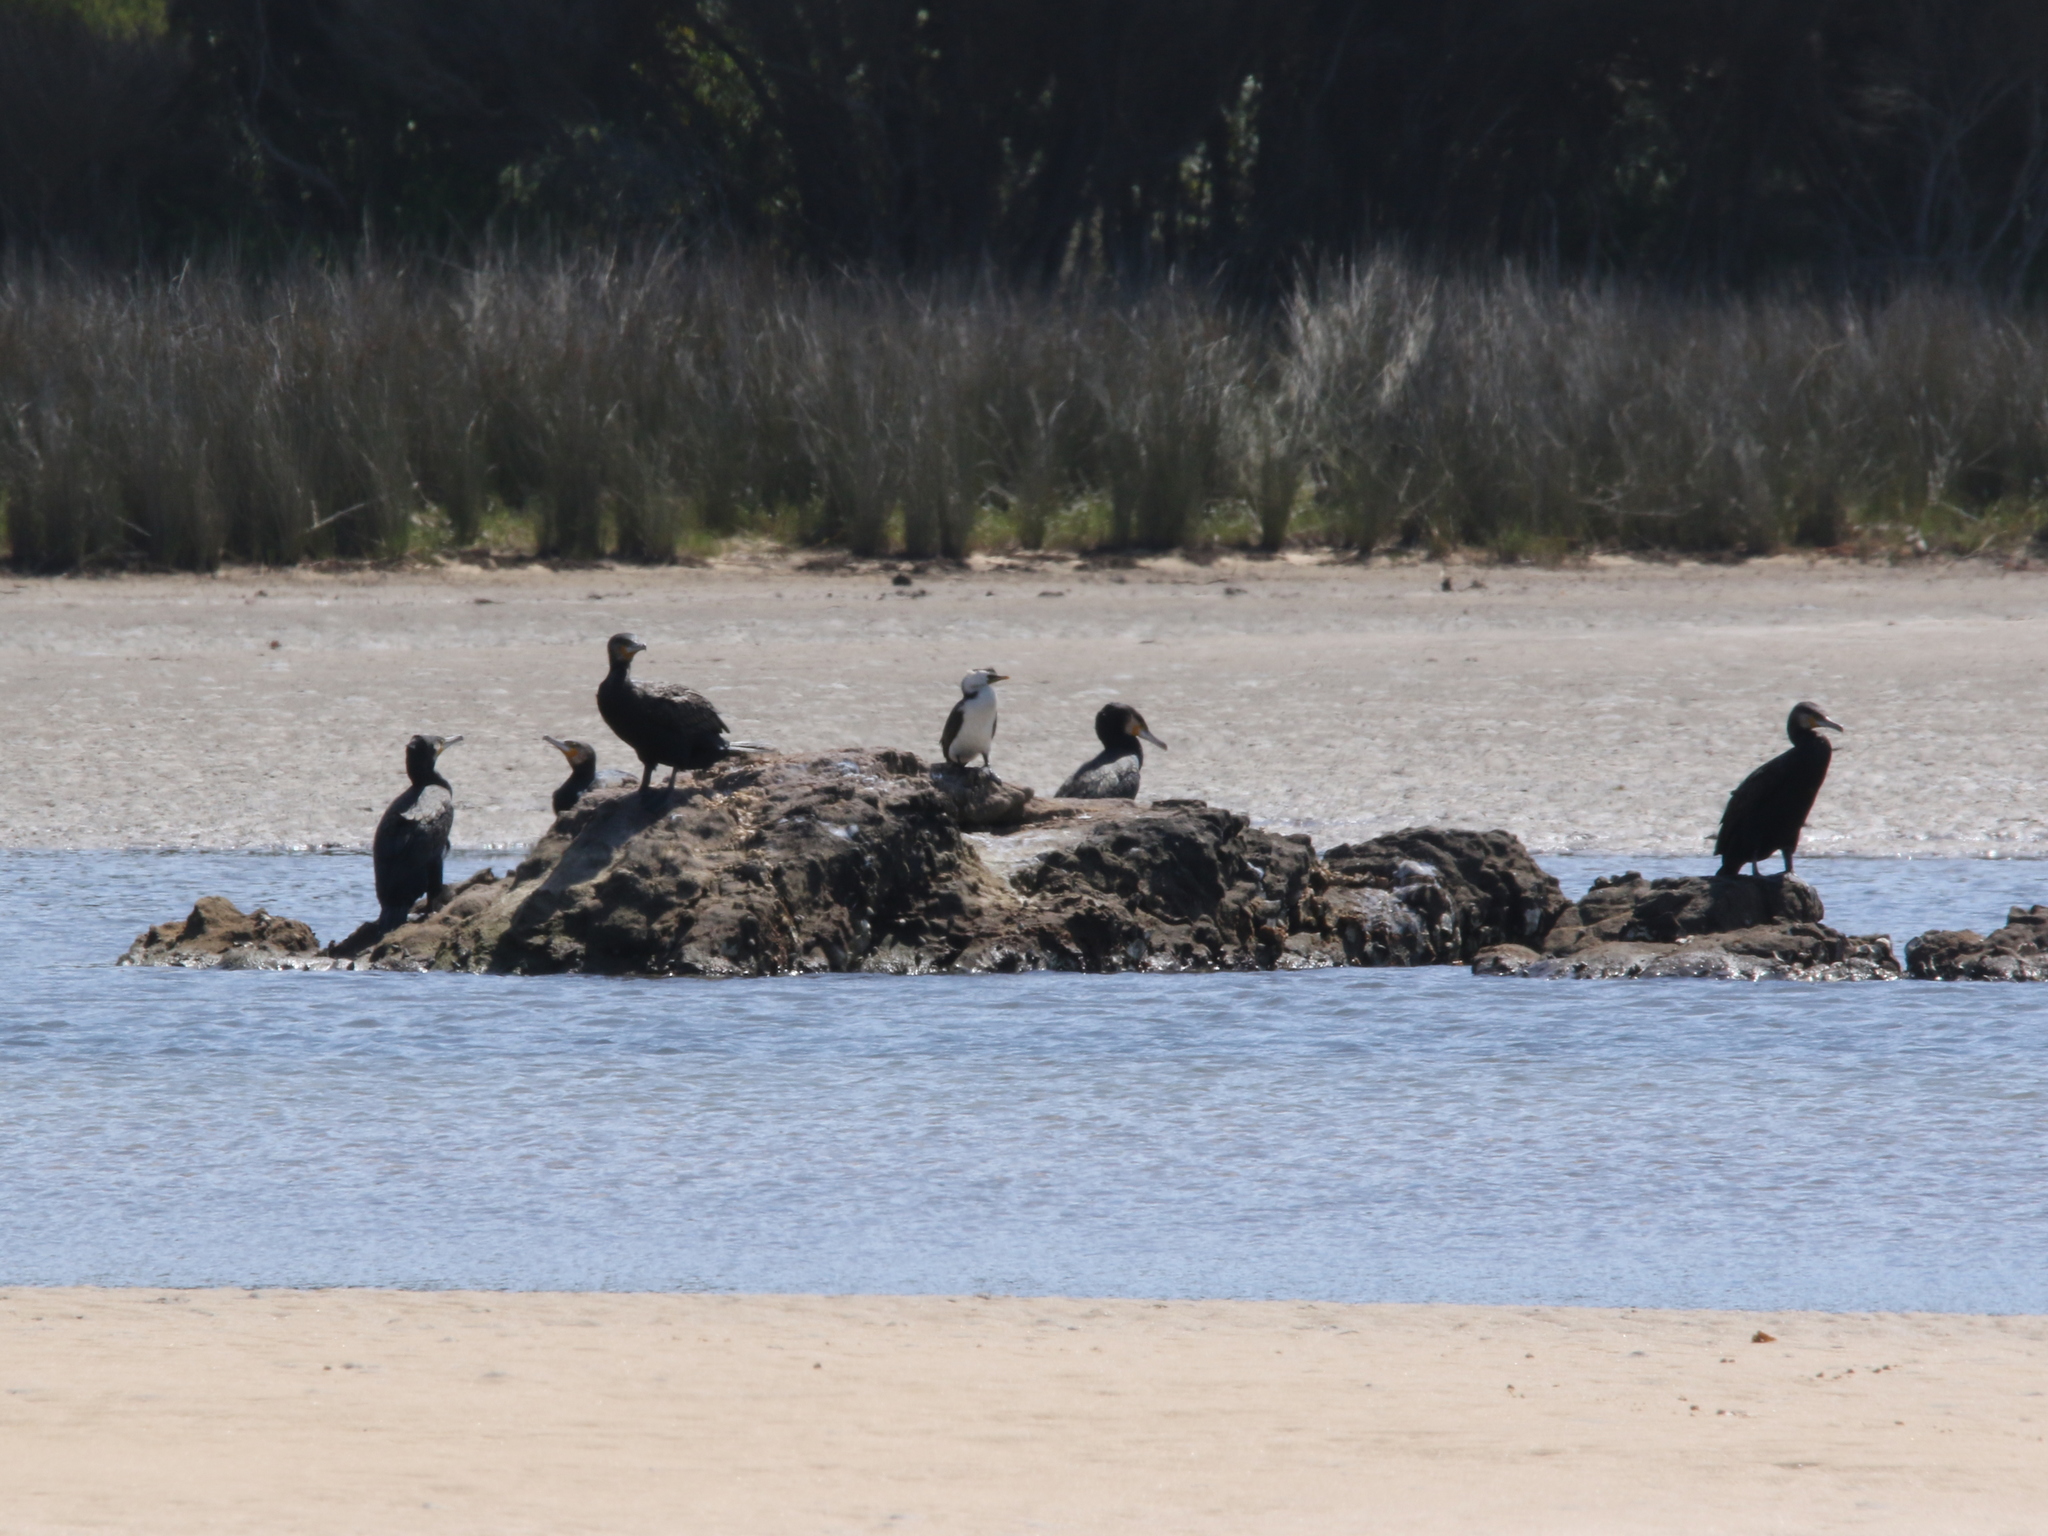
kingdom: Animalia
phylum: Chordata
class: Aves
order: Suliformes
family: Phalacrocoracidae
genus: Phalacrocorax
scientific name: Phalacrocorax carbo
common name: Great cormorant
